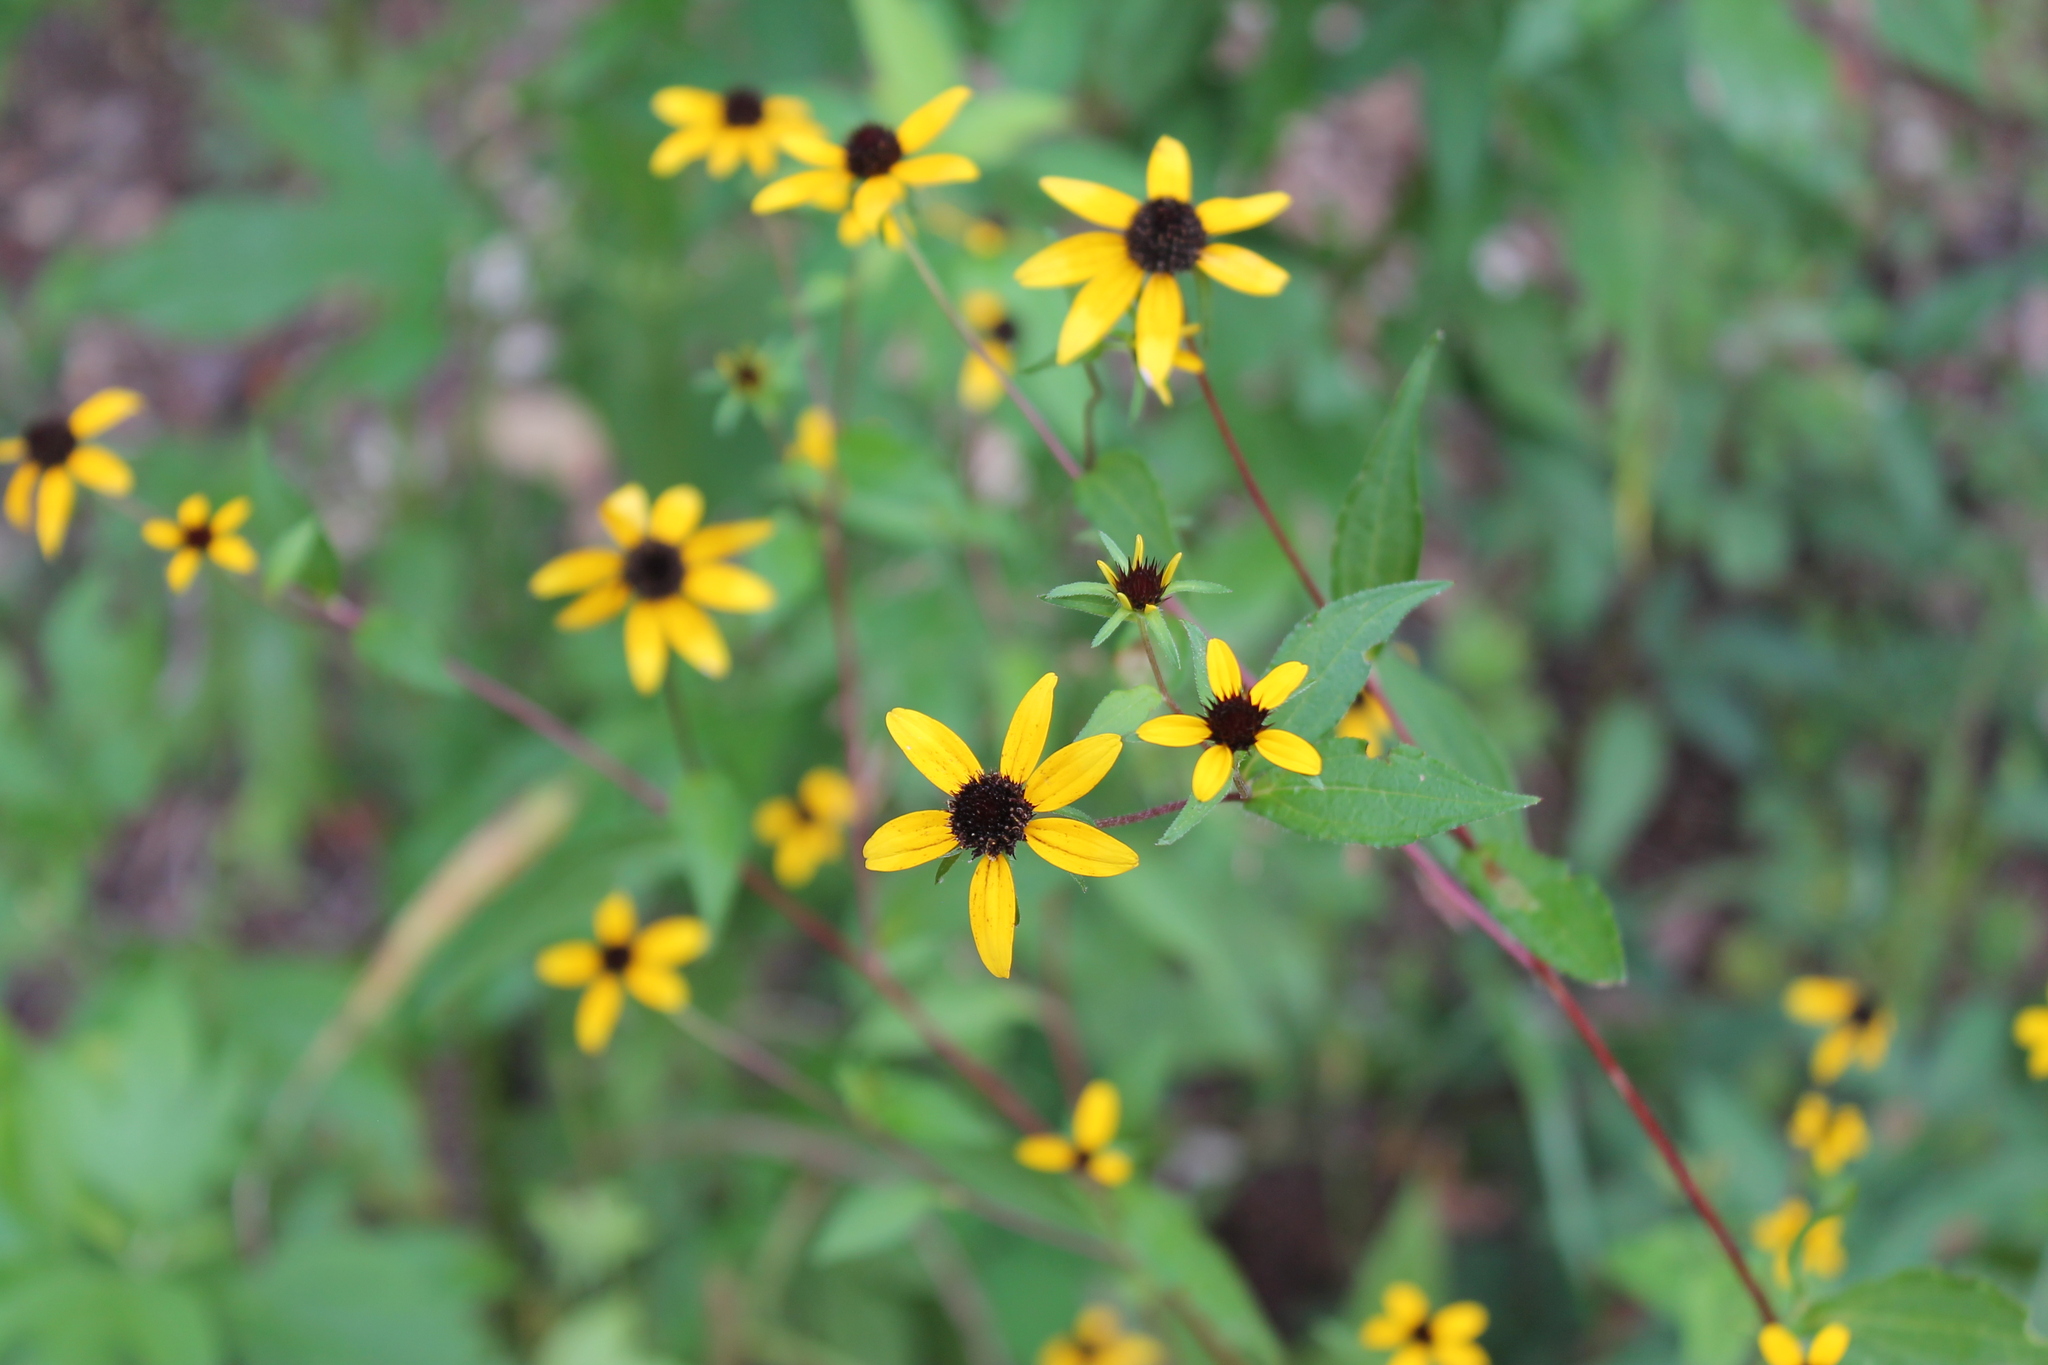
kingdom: Plantae
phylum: Tracheophyta
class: Magnoliopsida
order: Asterales
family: Asteraceae
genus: Rudbeckia
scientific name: Rudbeckia triloba
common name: Thin-leaved coneflower
